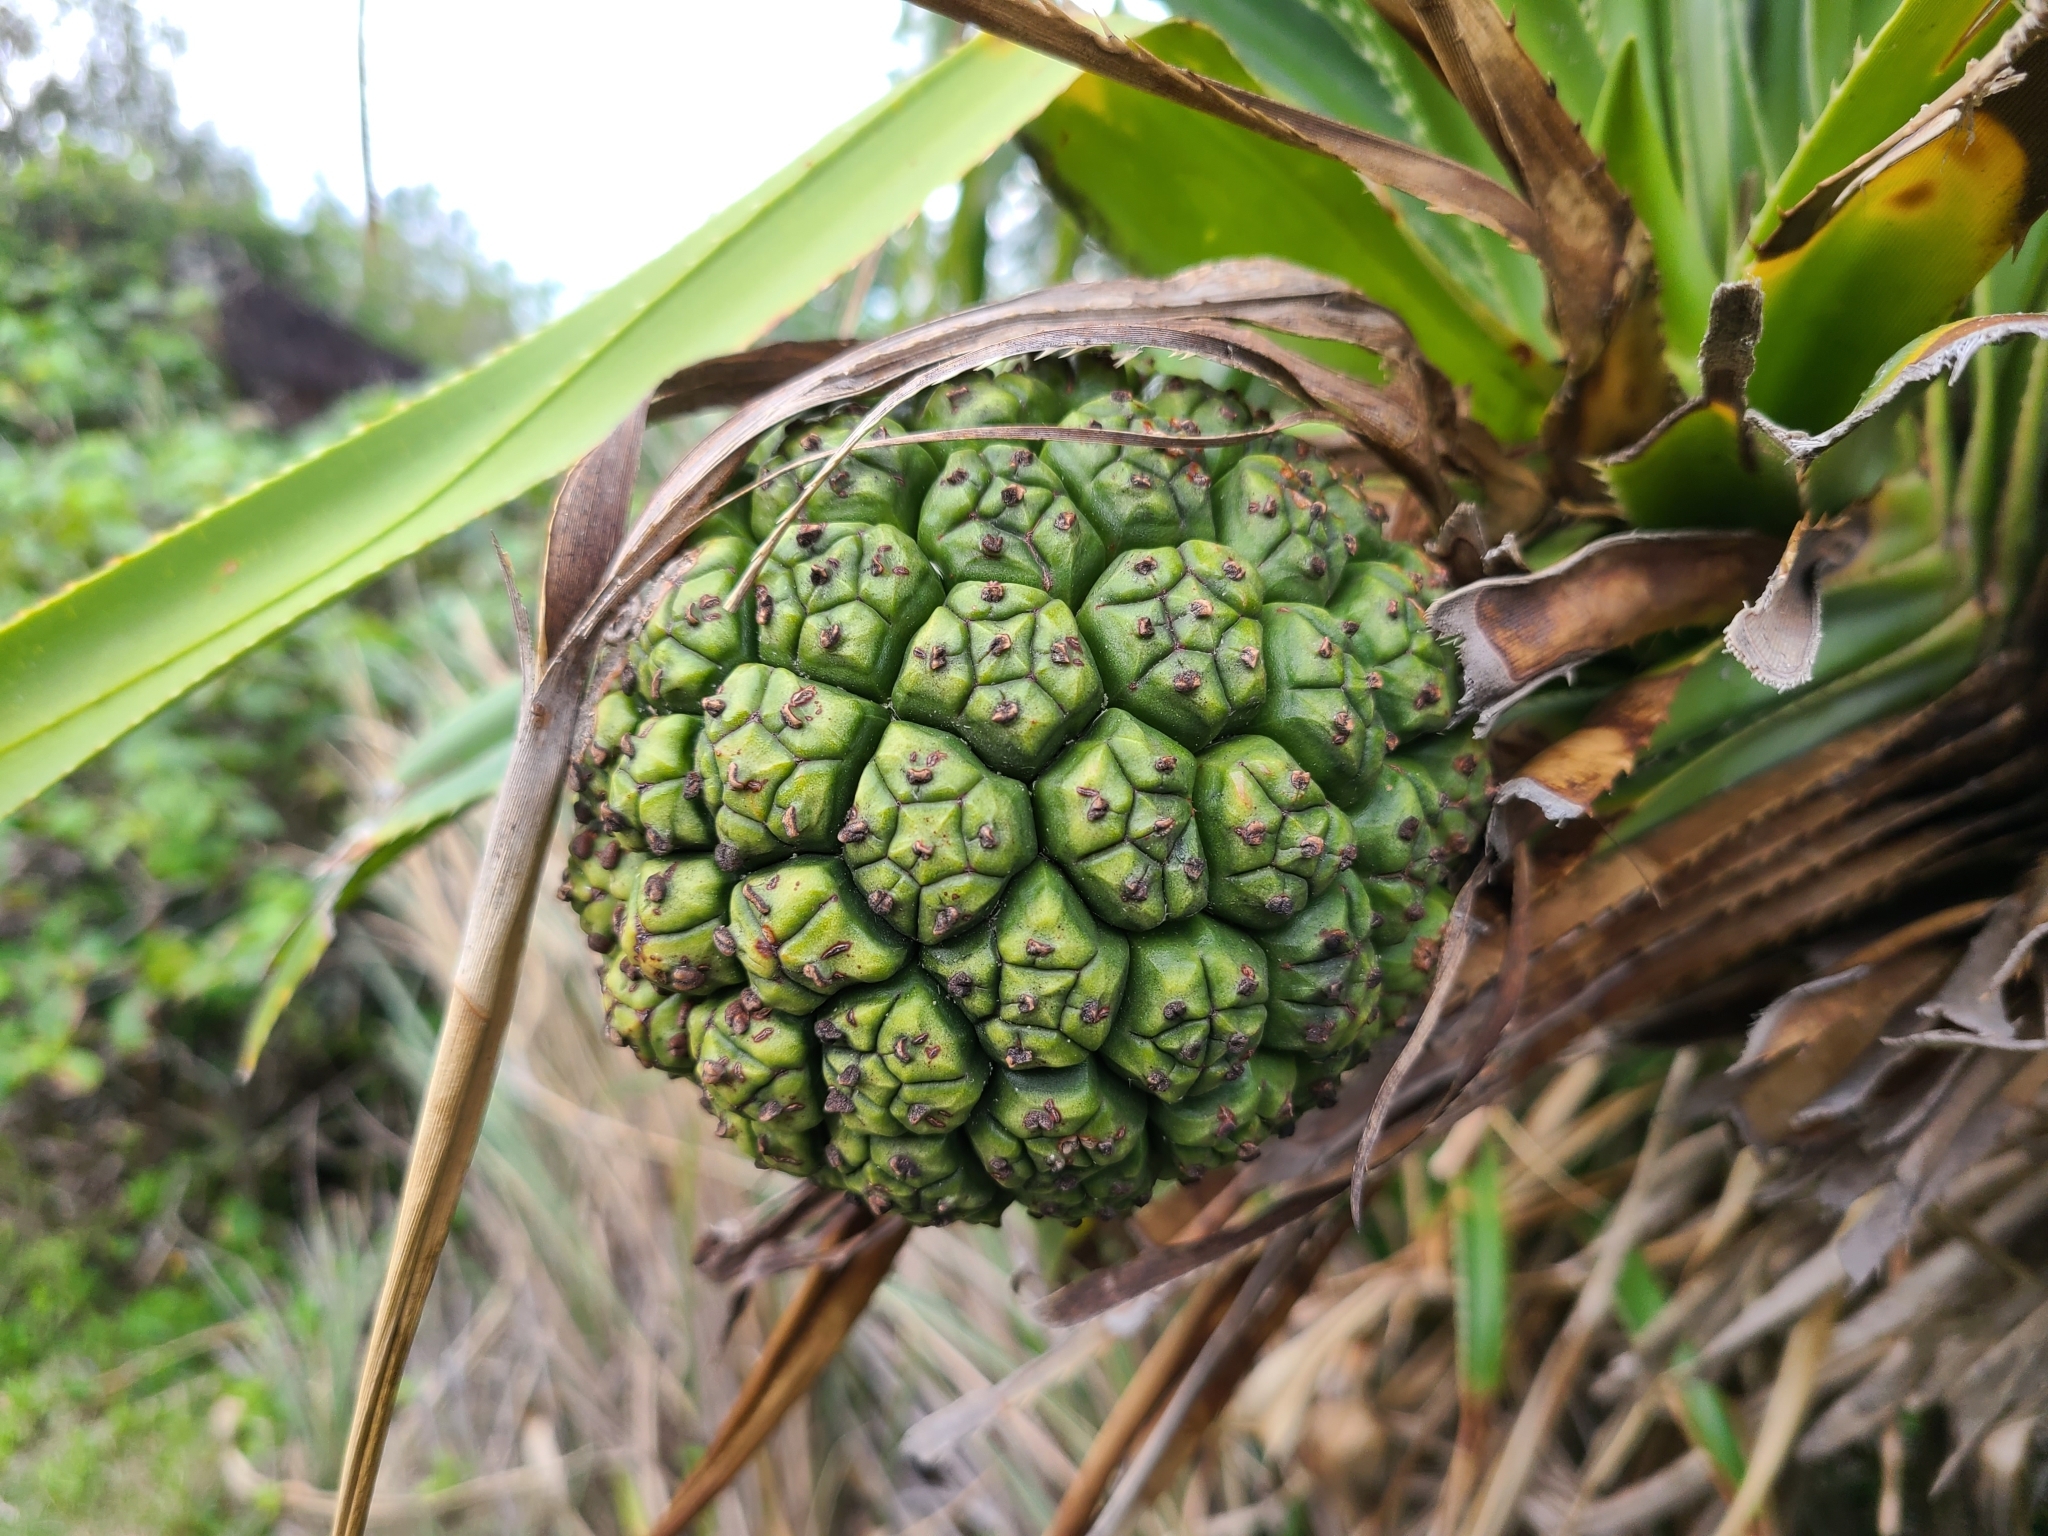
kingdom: Plantae
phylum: Tracheophyta
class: Liliopsida
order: Pandanales
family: Pandanaceae
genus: Pandanus
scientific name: Pandanus odorifer
